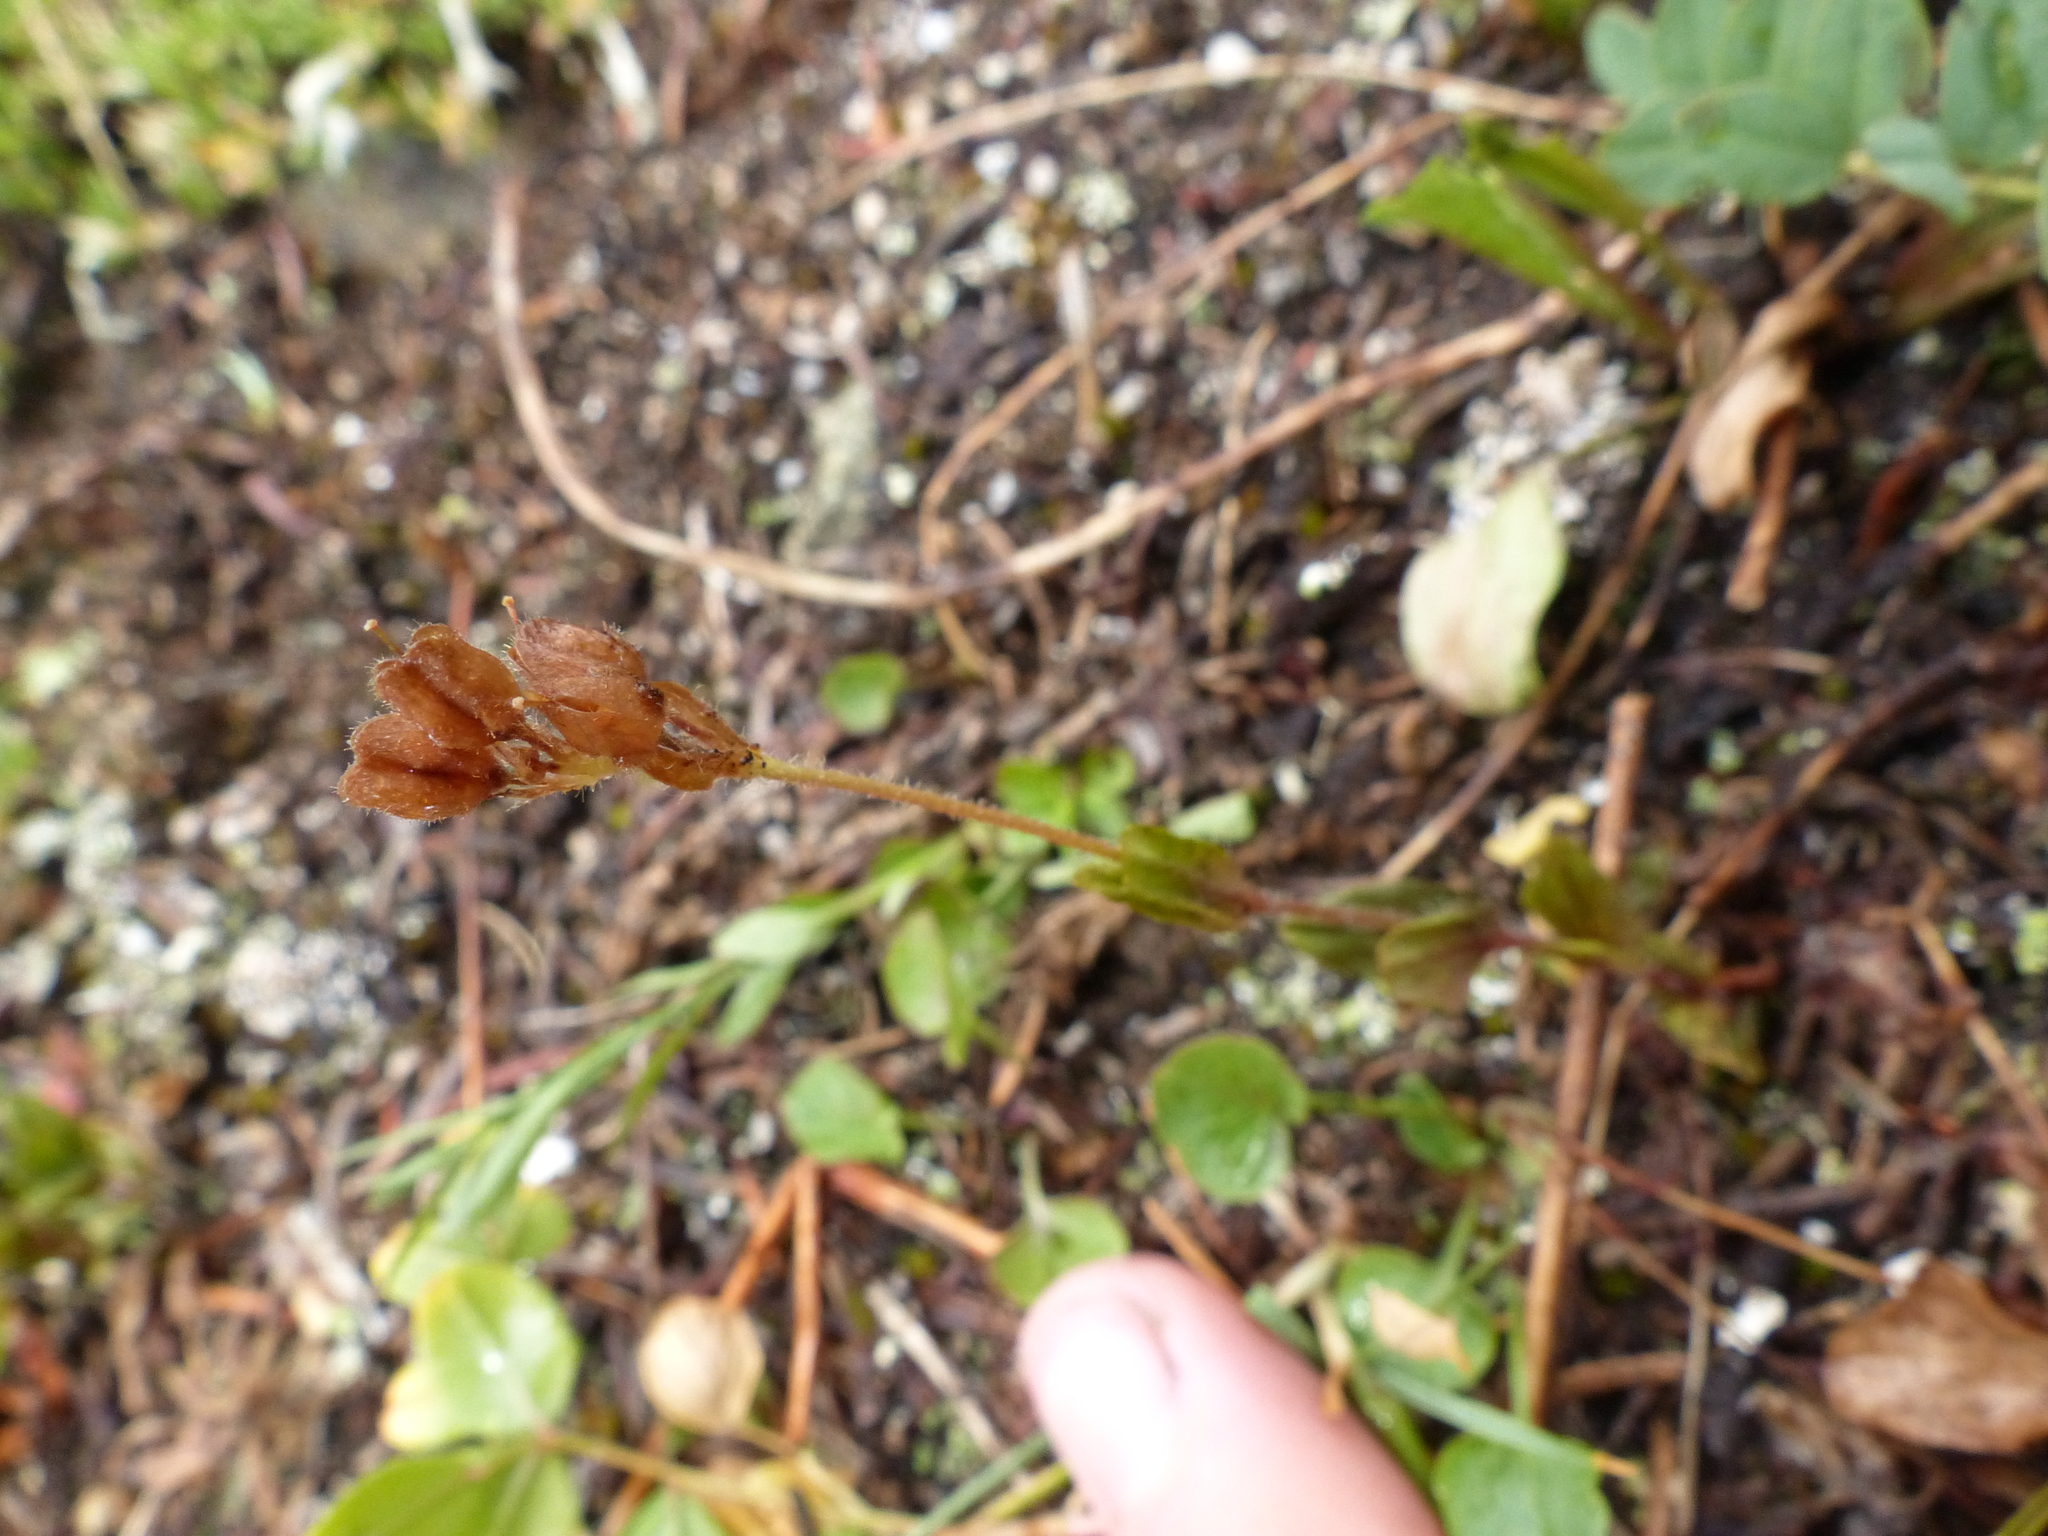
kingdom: Plantae
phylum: Tracheophyta
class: Magnoliopsida
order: Lamiales
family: Plantaginaceae
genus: Veronica
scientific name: Veronica wormskjoldii
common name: American alpine speedwell
